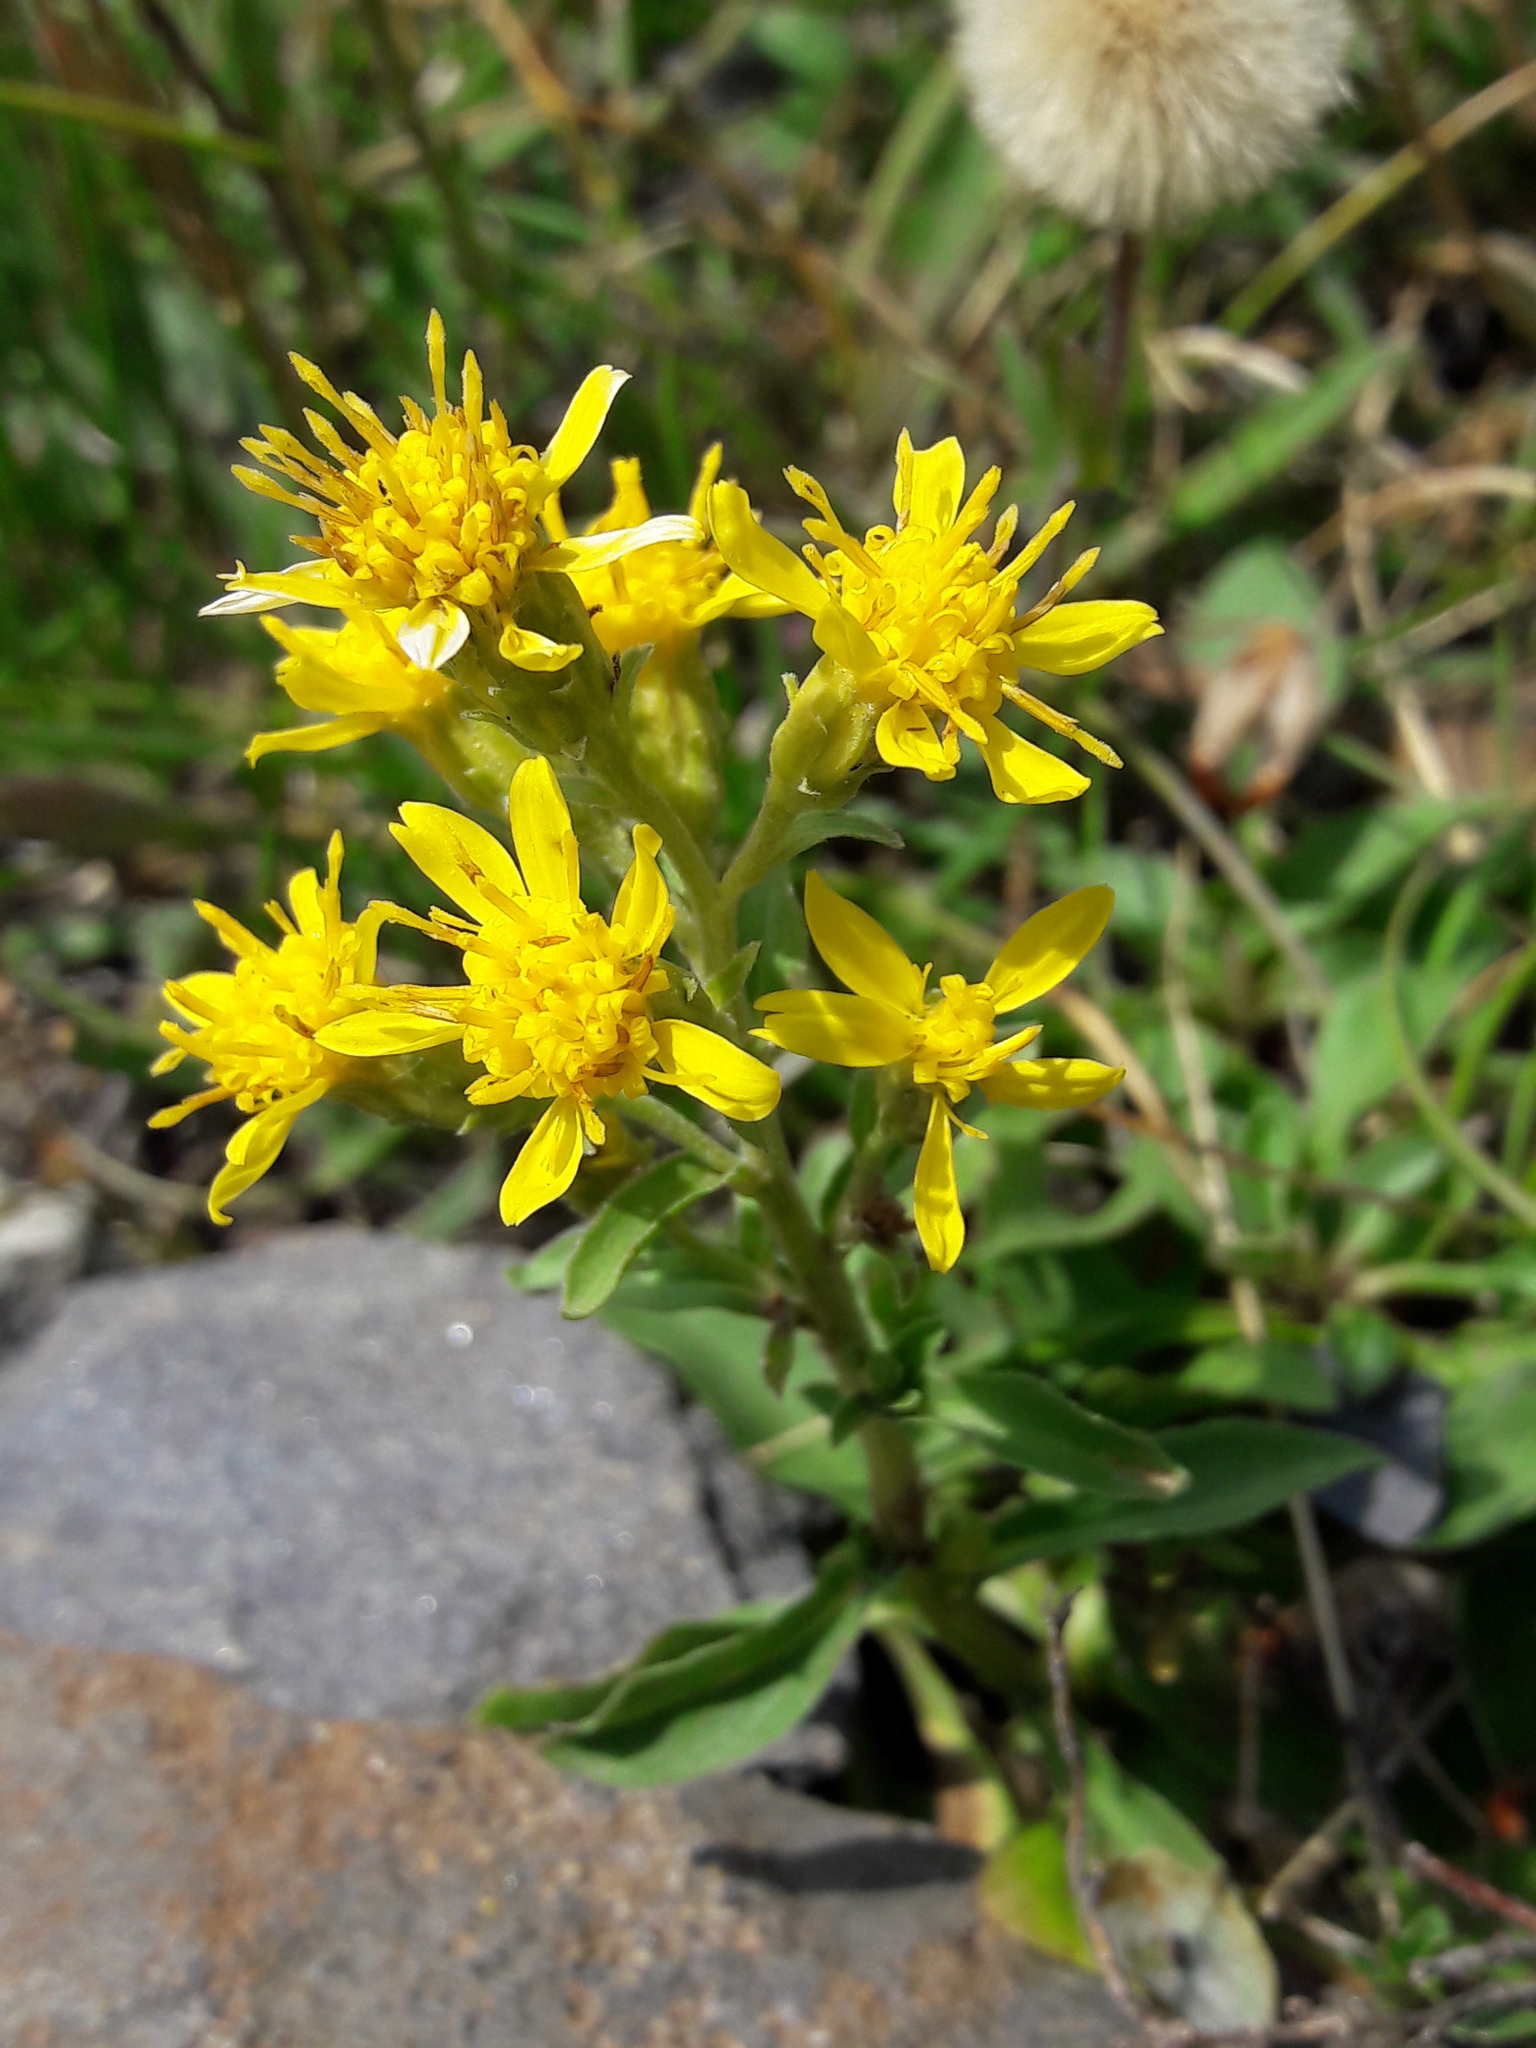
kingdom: Plantae
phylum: Tracheophyta
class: Magnoliopsida
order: Asterales
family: Asteraceae
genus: Solidago
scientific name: Solidago virgaurea
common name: Goldenrod
